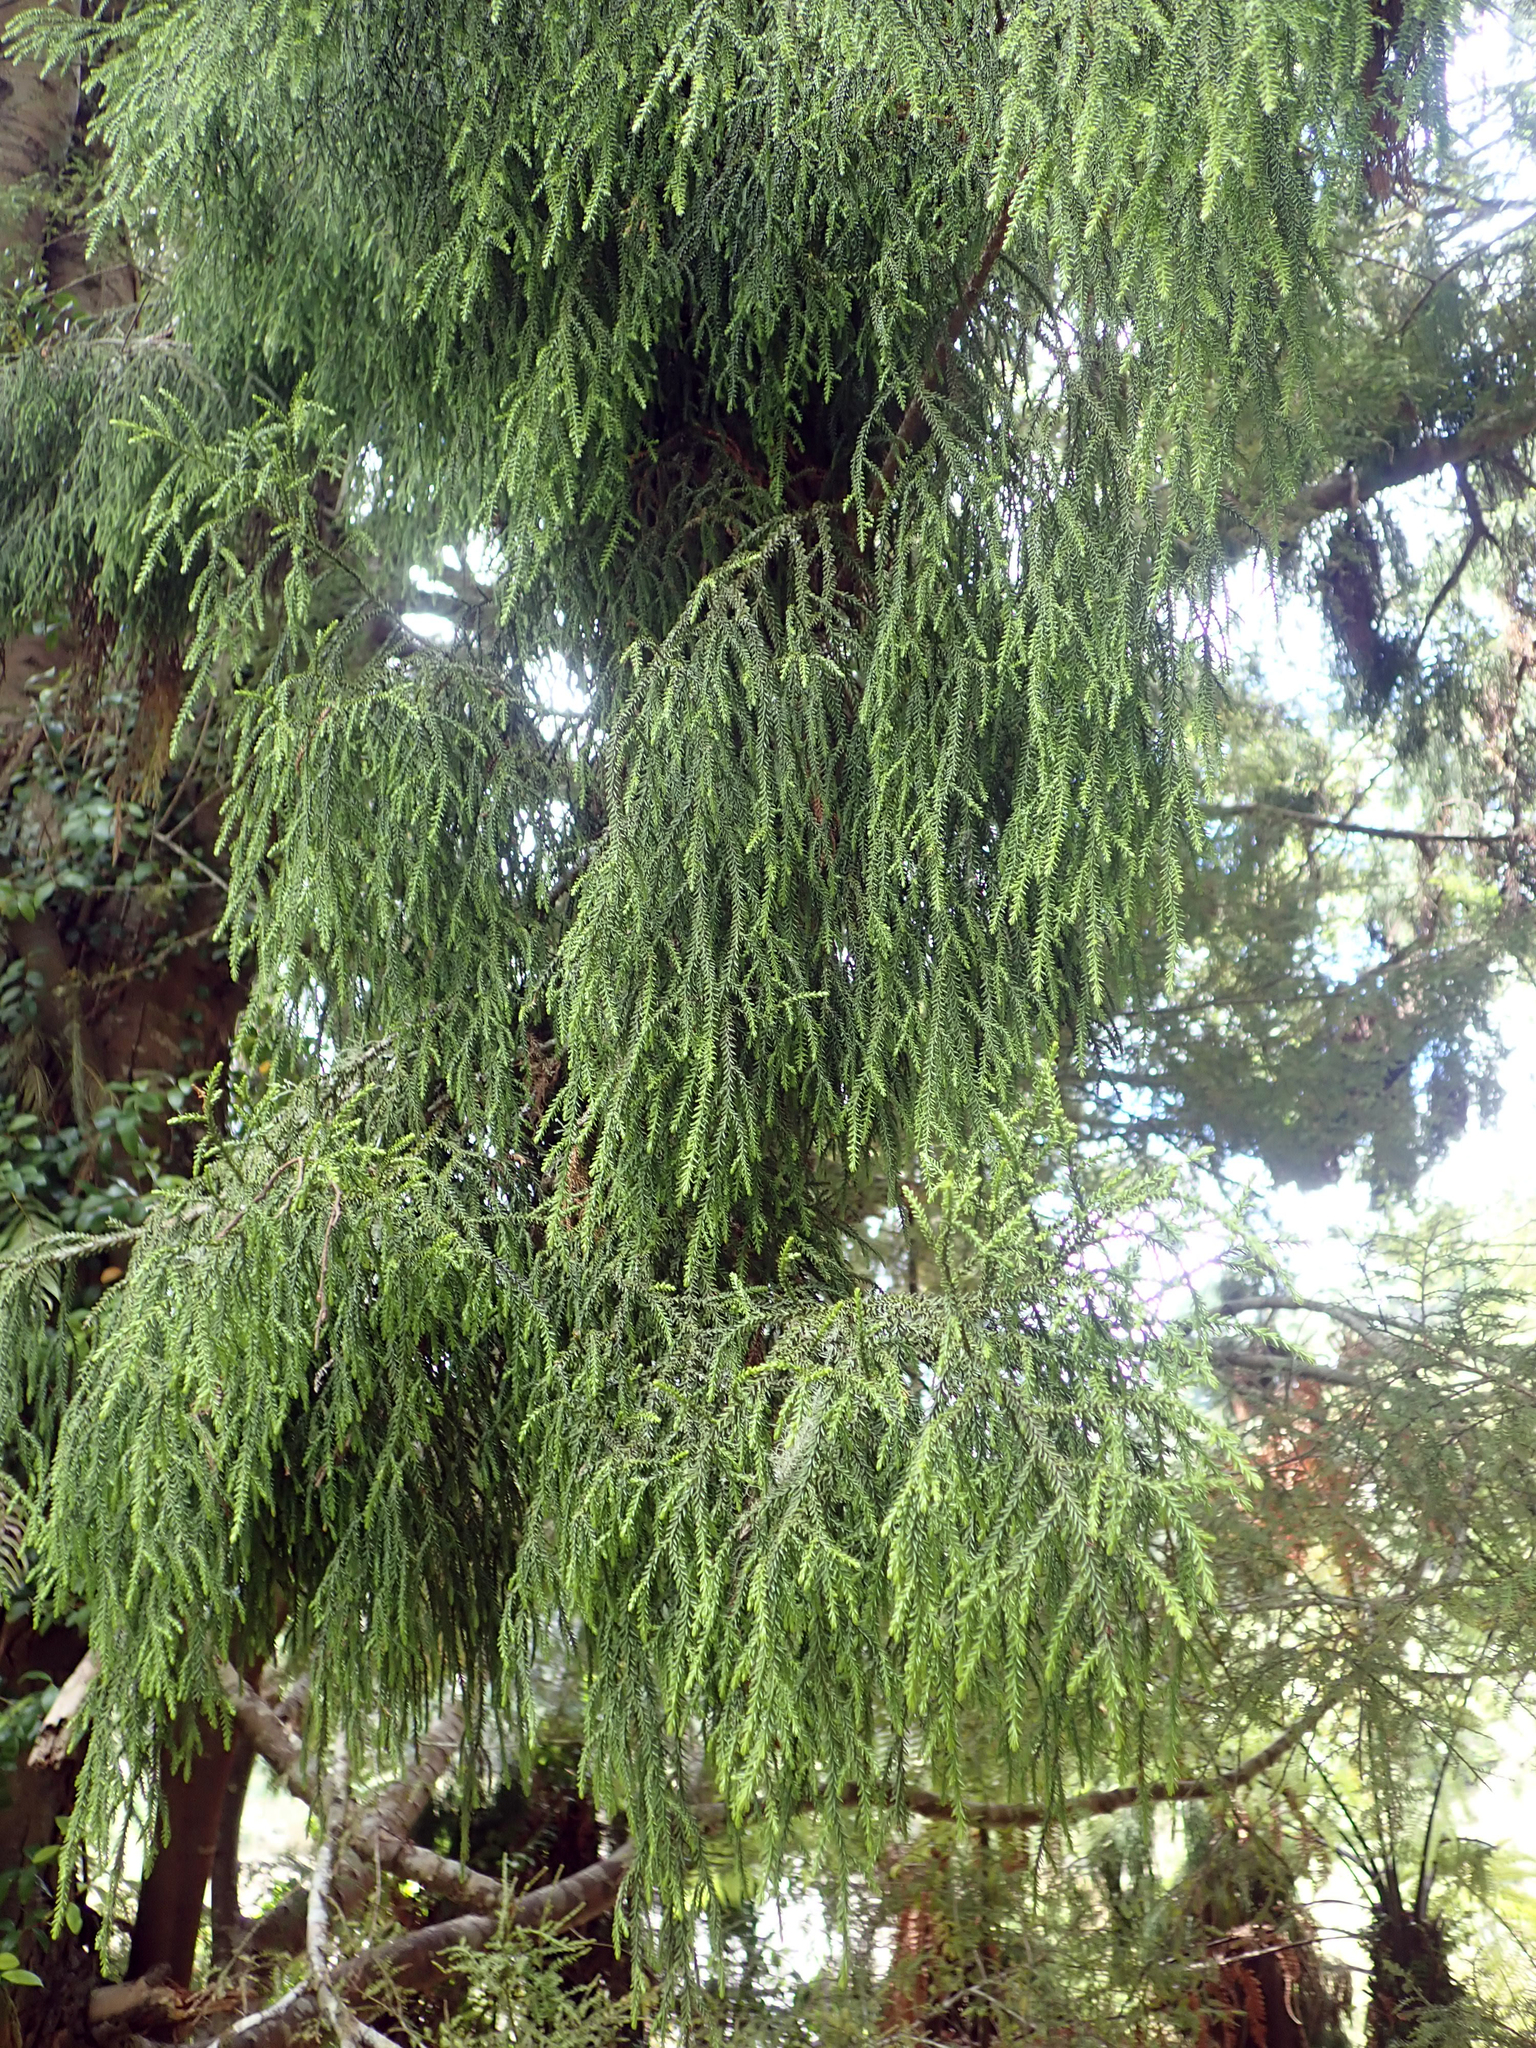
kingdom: Plantae
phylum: Tracheophyta
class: Pinopsida
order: Pinales
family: Podocarpaceae
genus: Dacrydium
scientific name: Dacrydium cupressinum
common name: Red pine
